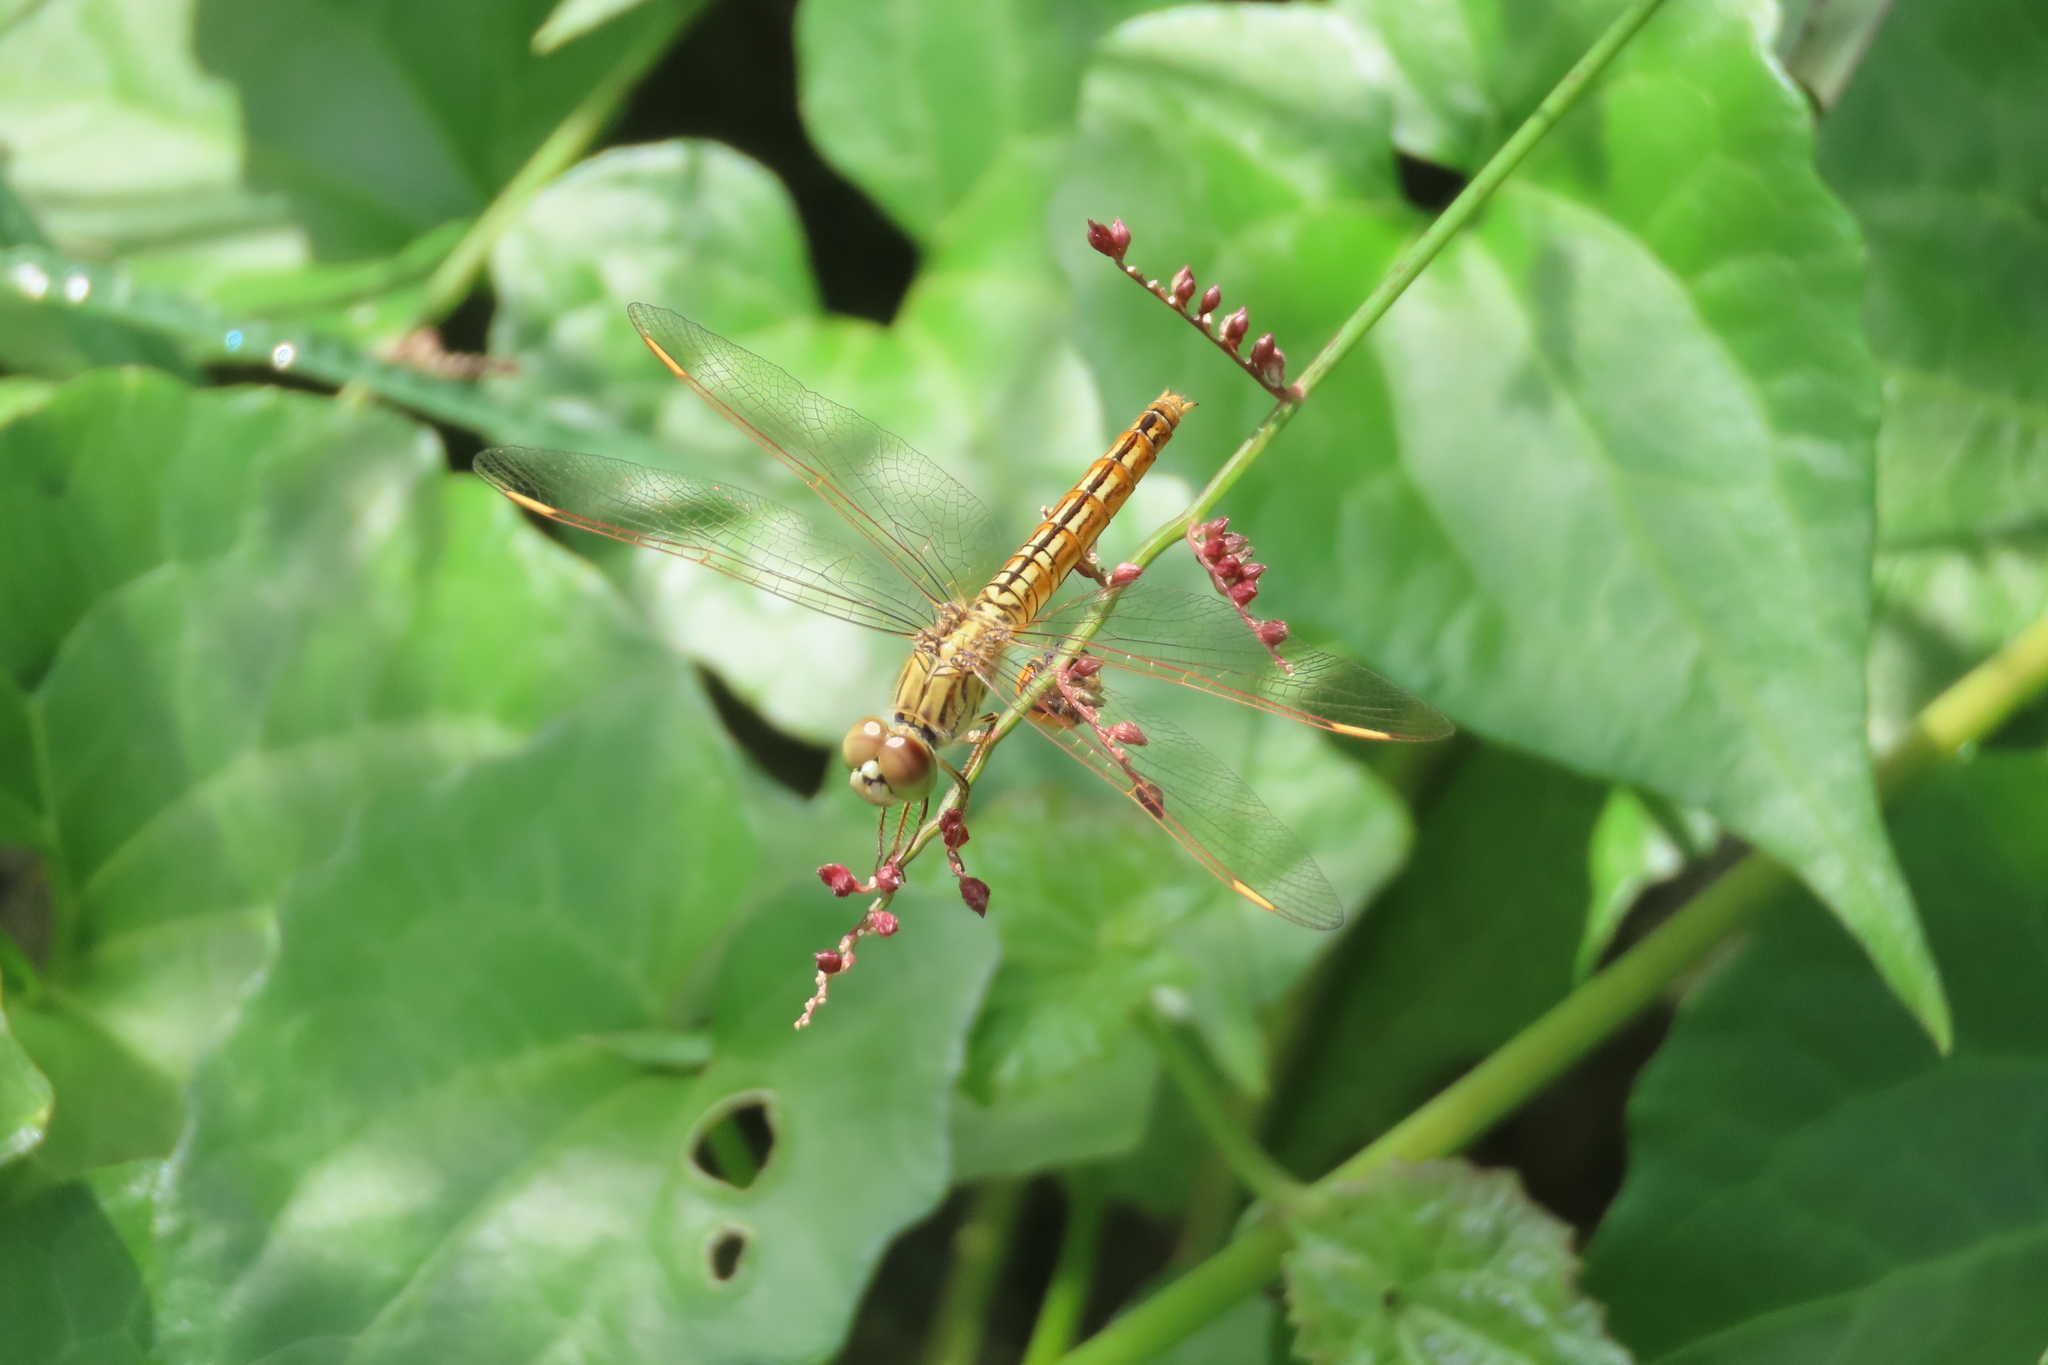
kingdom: Animalia
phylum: Arthropoda
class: Insecta
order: Odonata
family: Libellulidae
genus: Brachythemis
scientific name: Brachythemis contaminata
